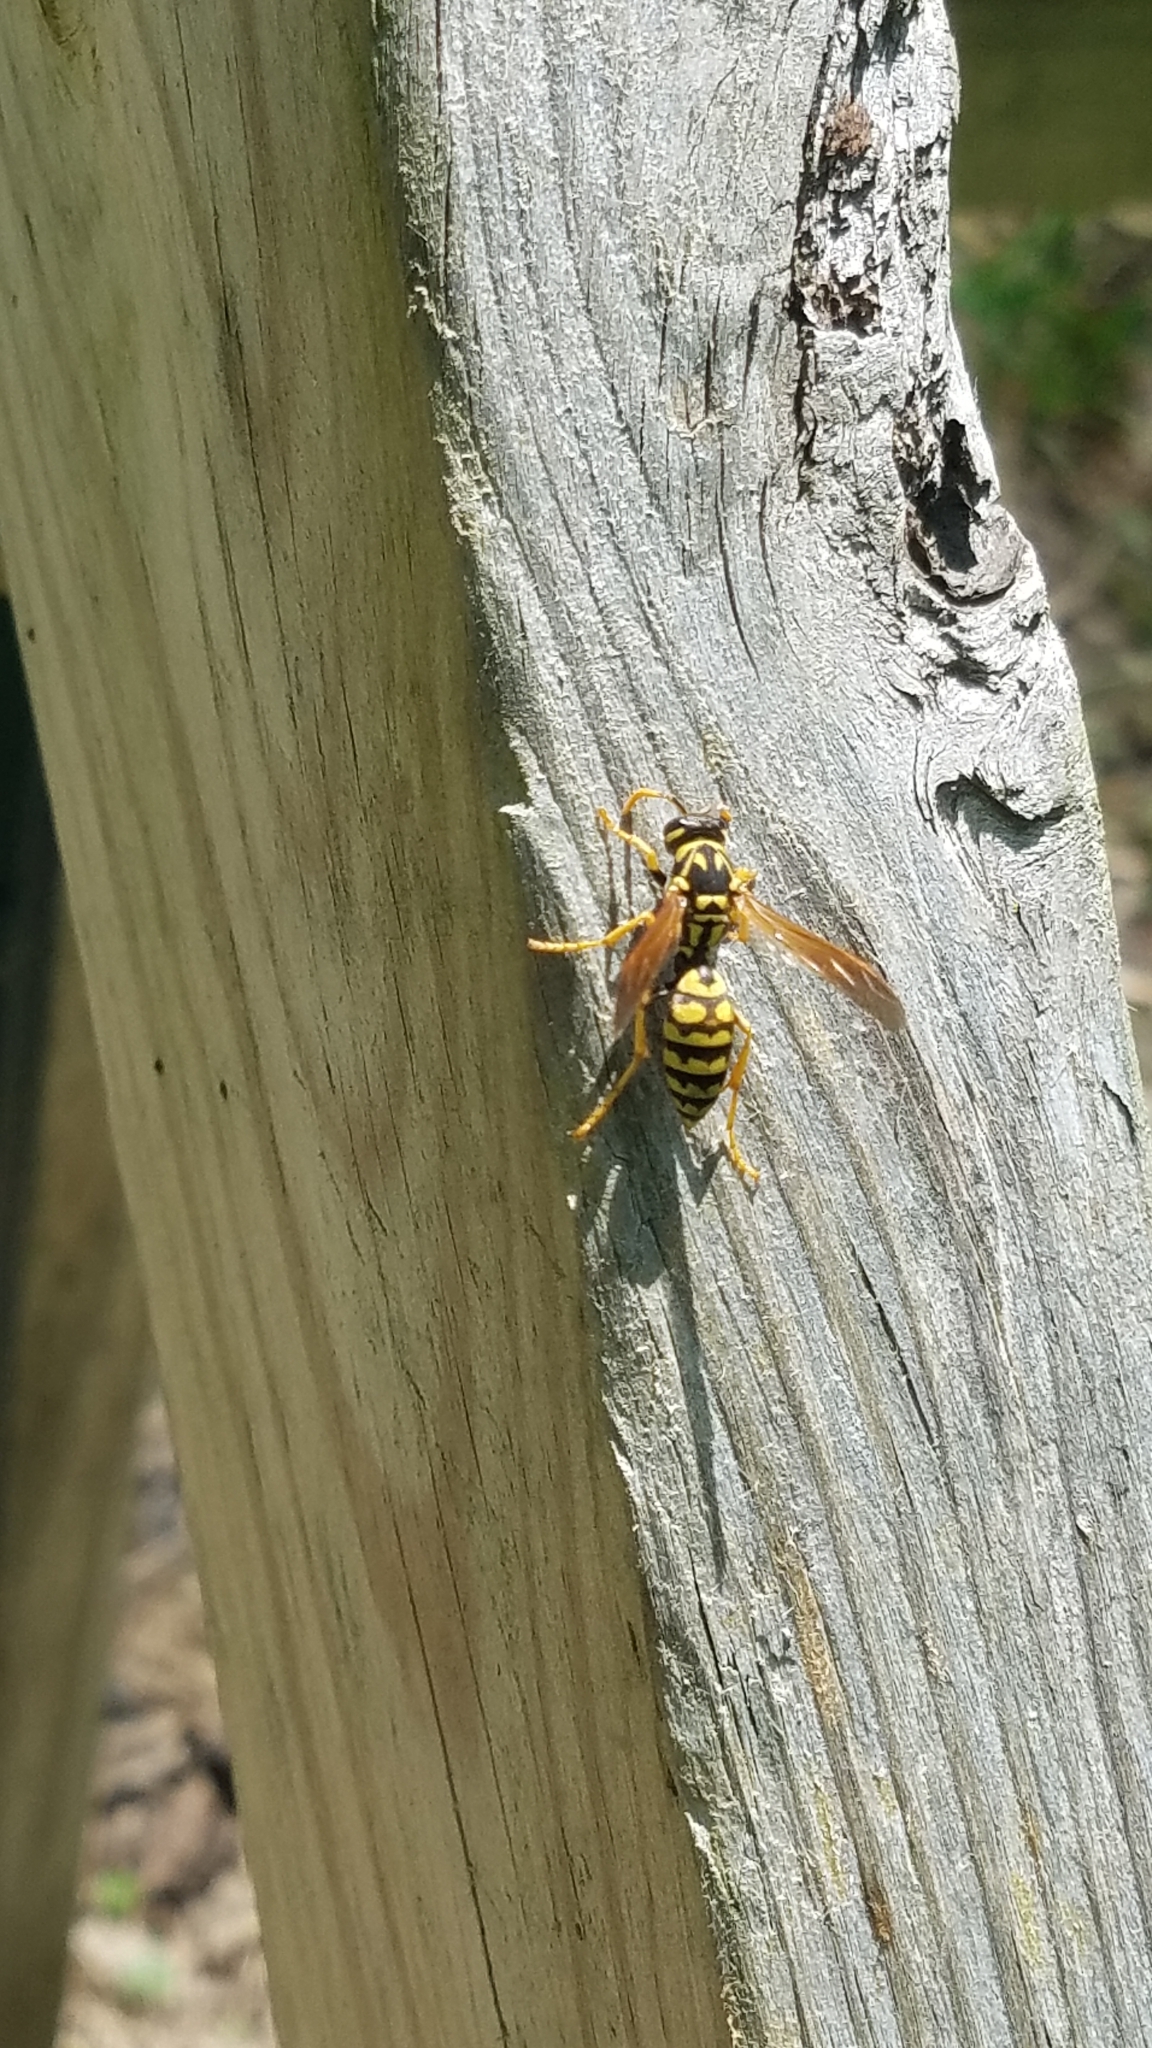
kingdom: Animalia
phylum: Arthropoda
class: Insecta
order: Hymenoptera
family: Eumenidae
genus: Polistes
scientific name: Polistes dominula
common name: Paper wasp
